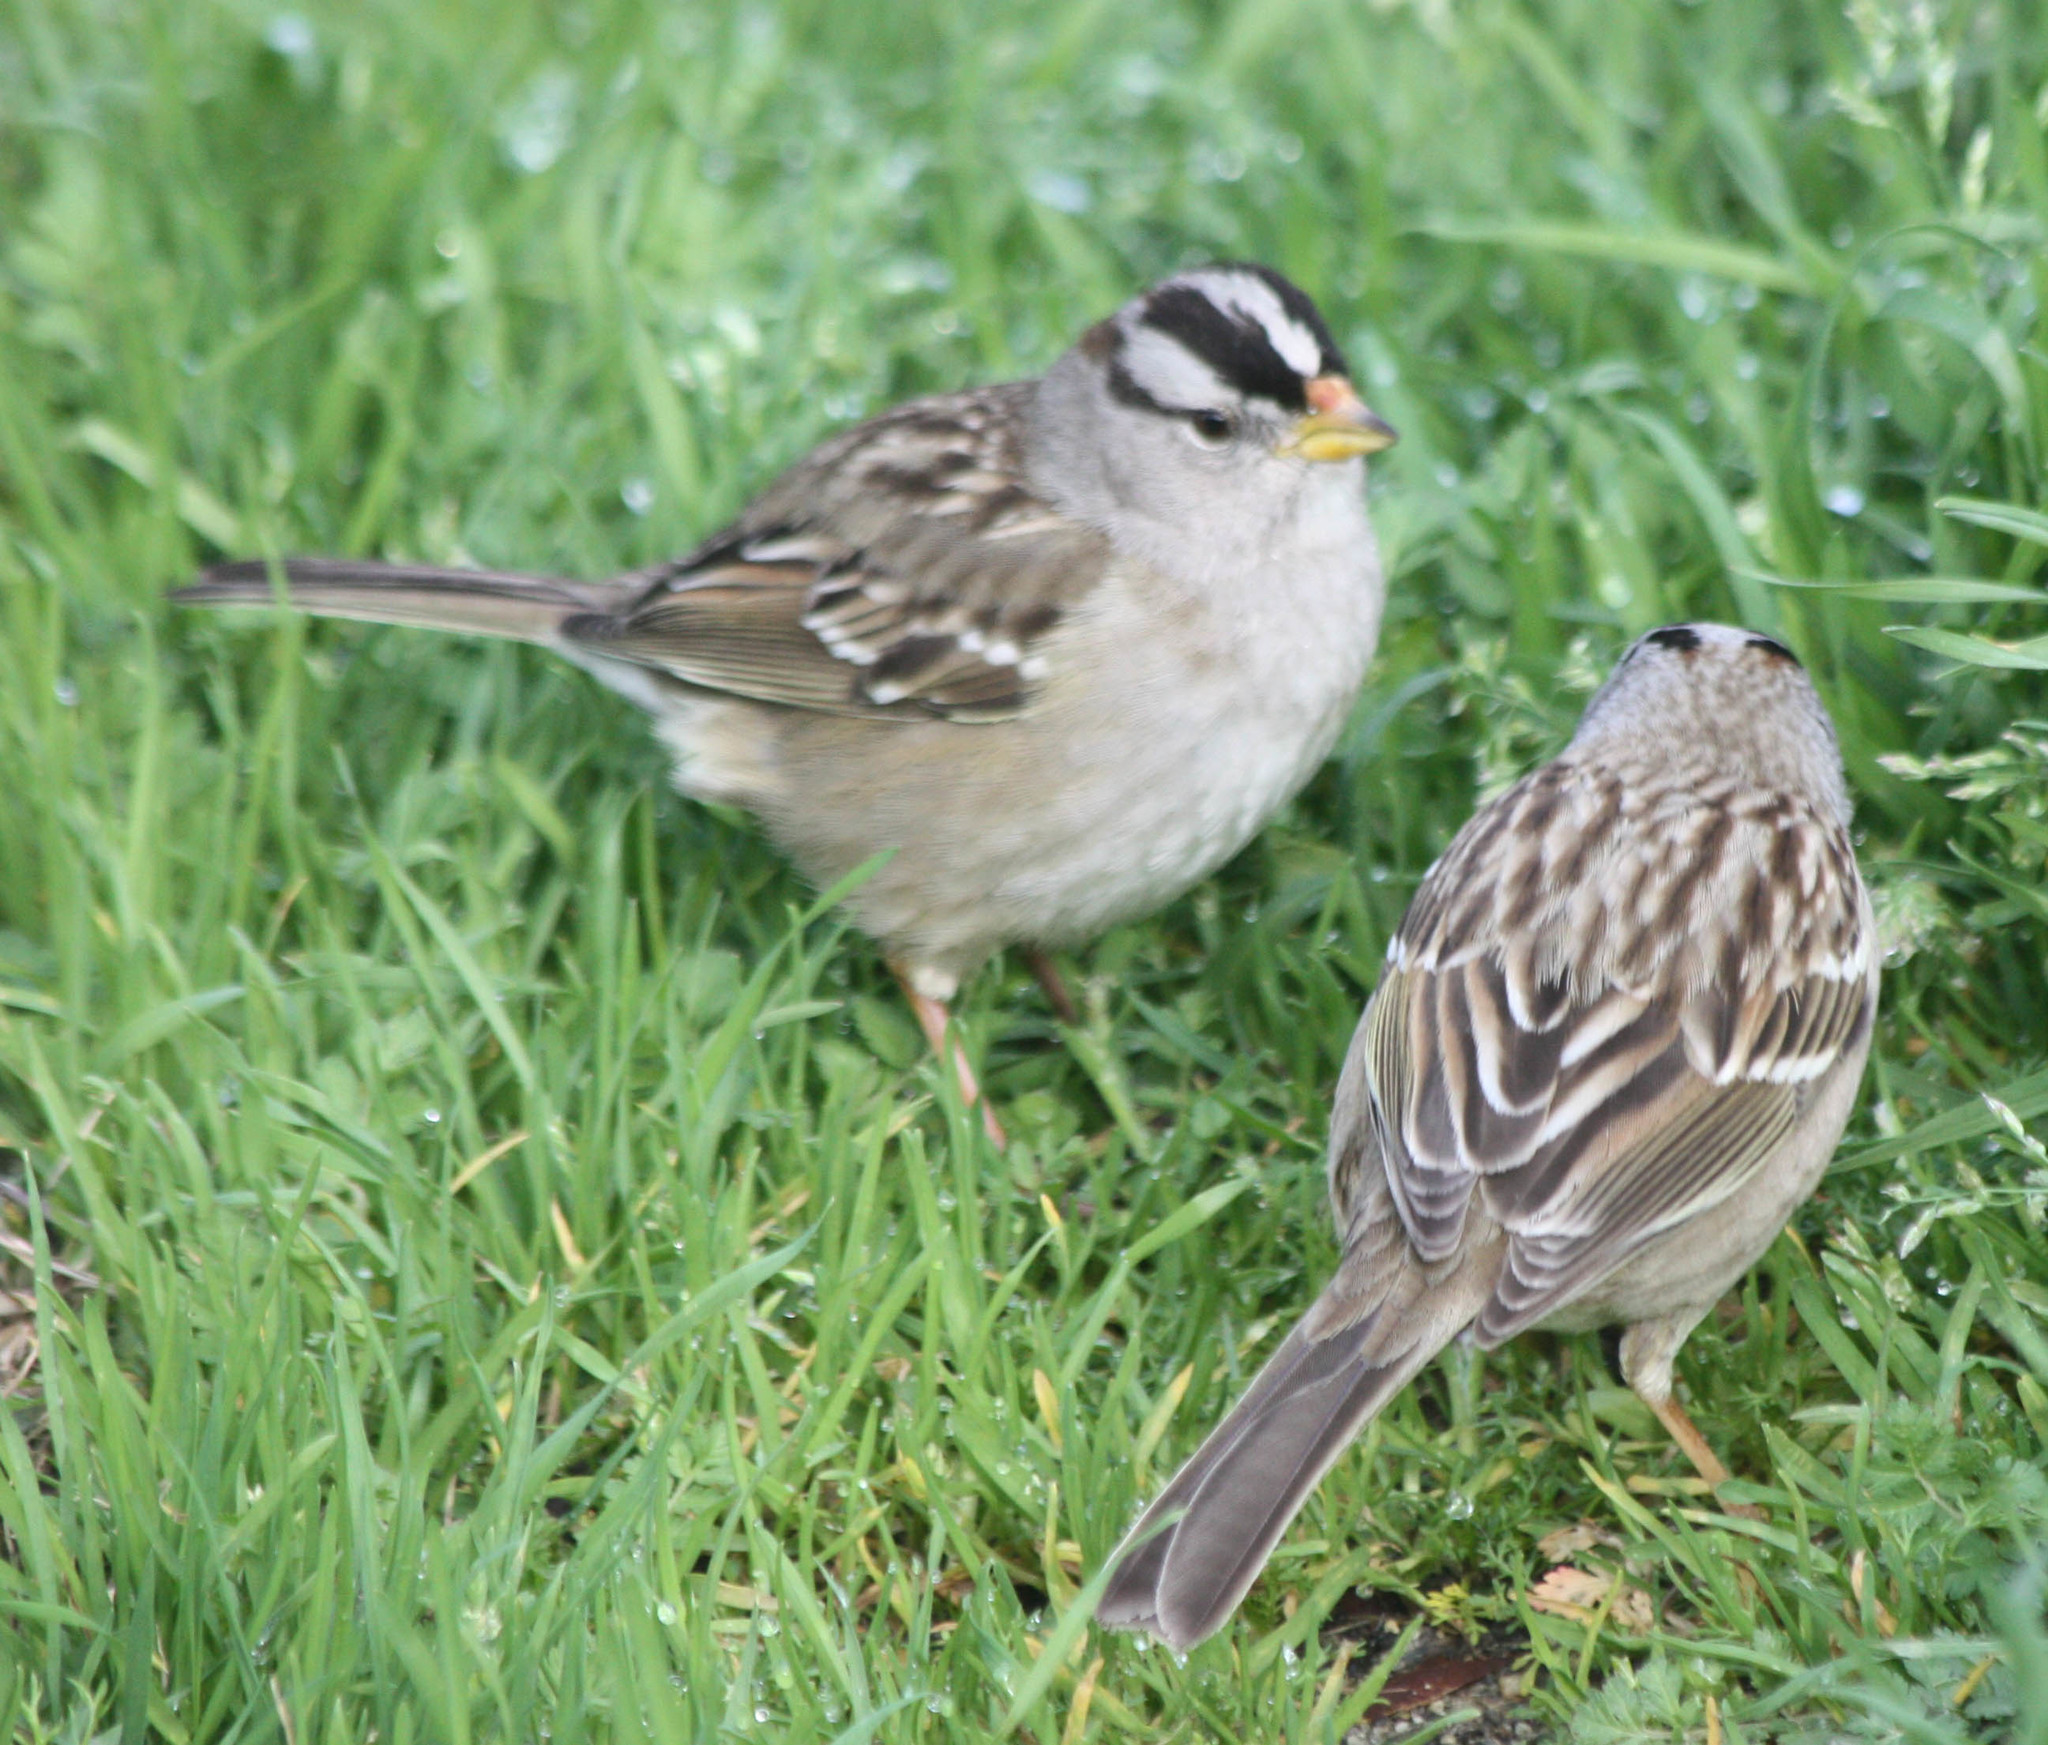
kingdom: Animalia
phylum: Chordata
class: Aves
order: Passeriformes
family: Passerellidae
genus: Zonotrichia
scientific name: Zonotrichia leucophrys
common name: White-crowned sparrow
